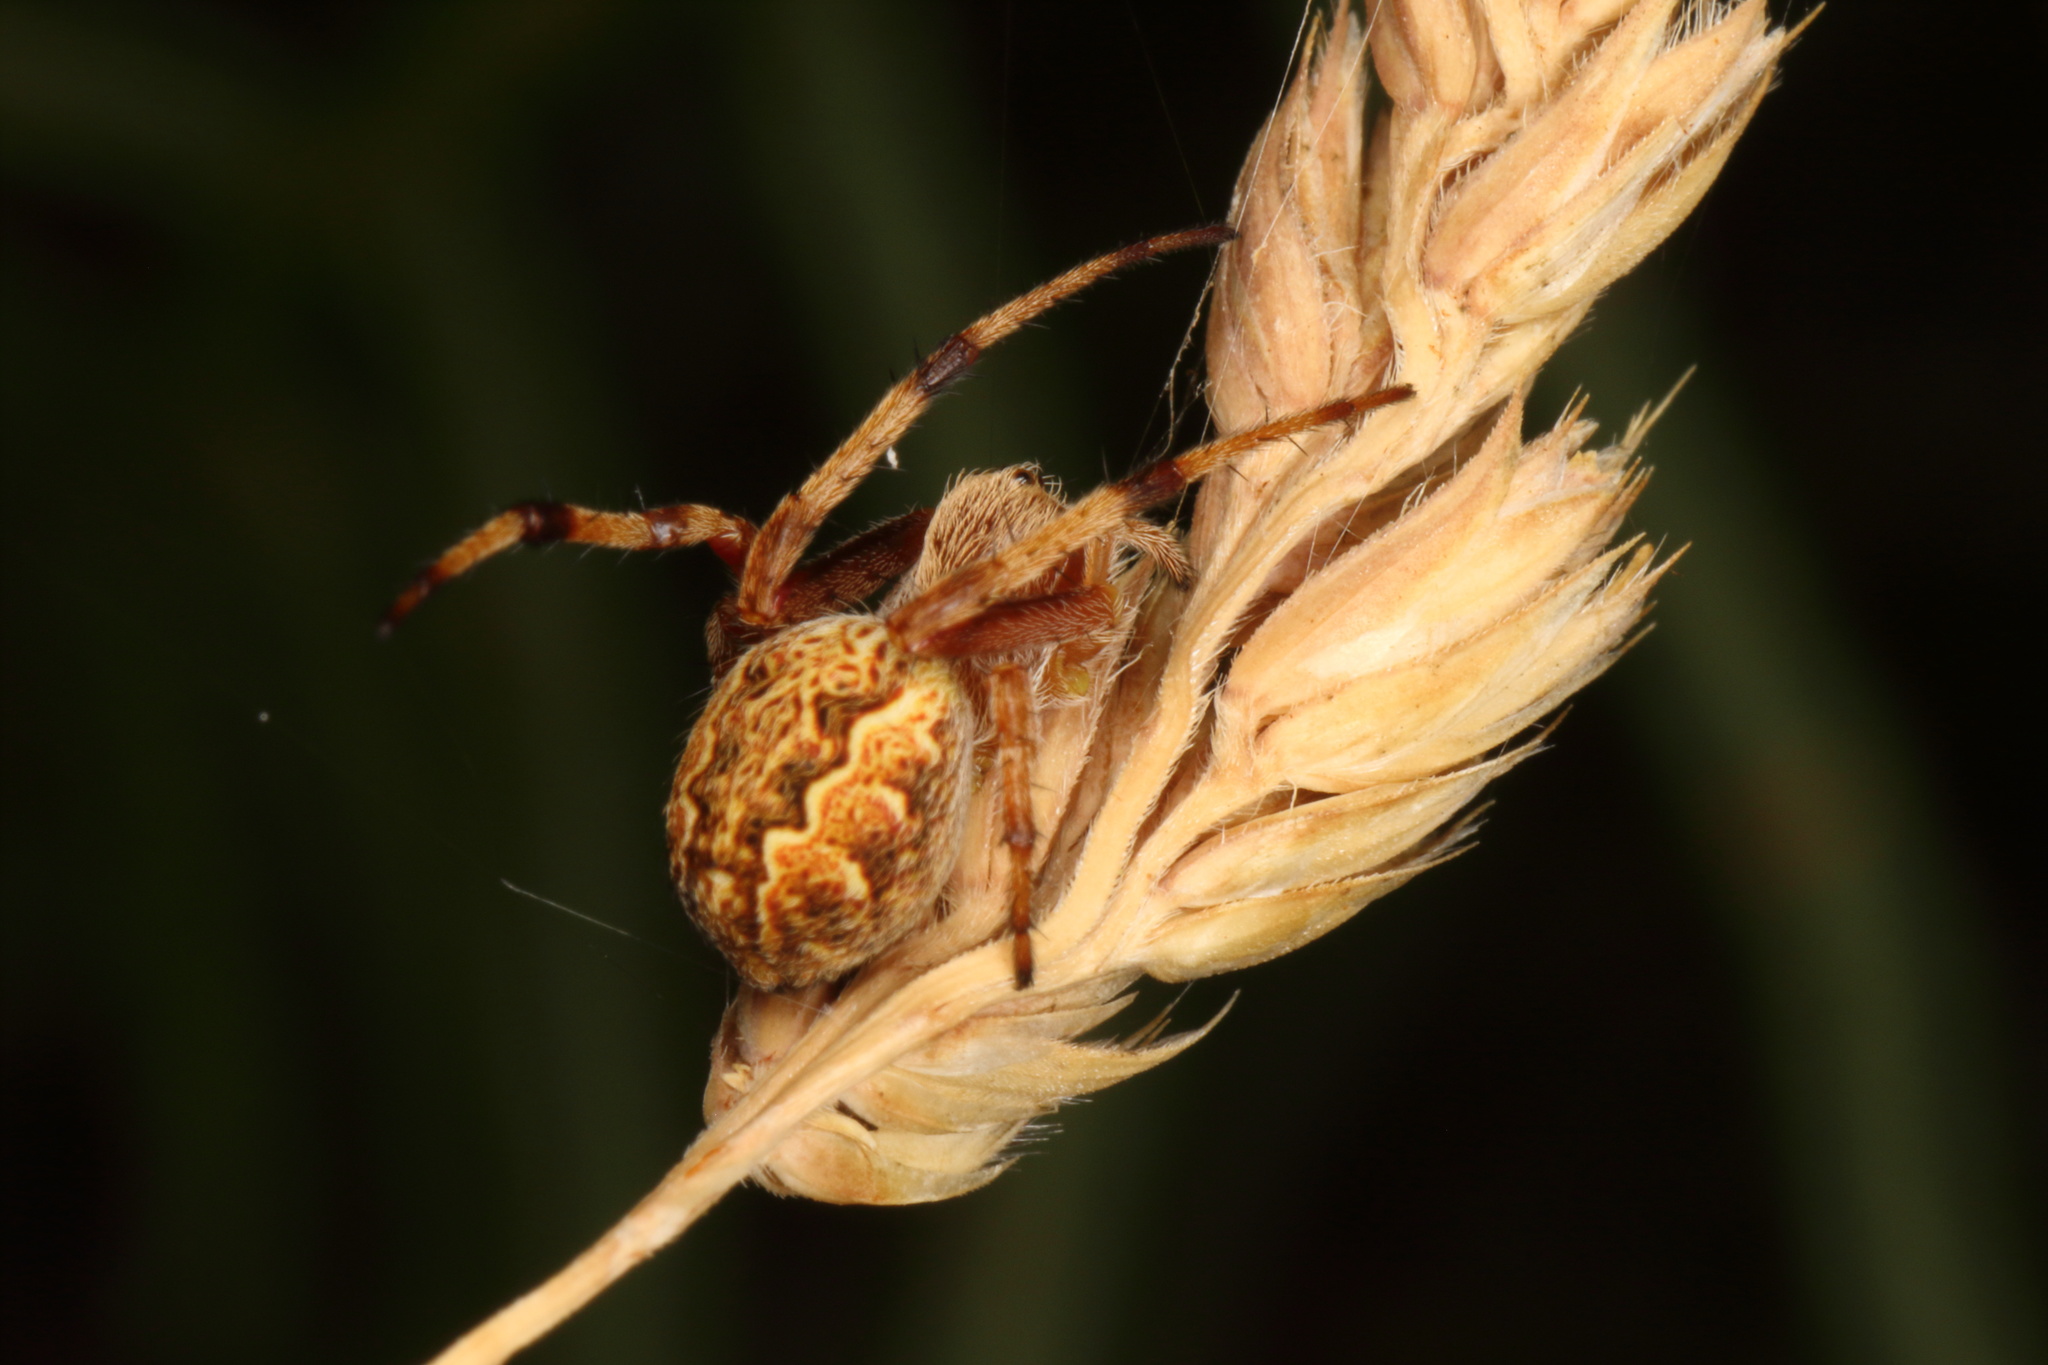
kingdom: Animalia
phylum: Arthropoda
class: Arachnida
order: Araneae
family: Araneidae
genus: Salsa
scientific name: Salsa fuliginata
